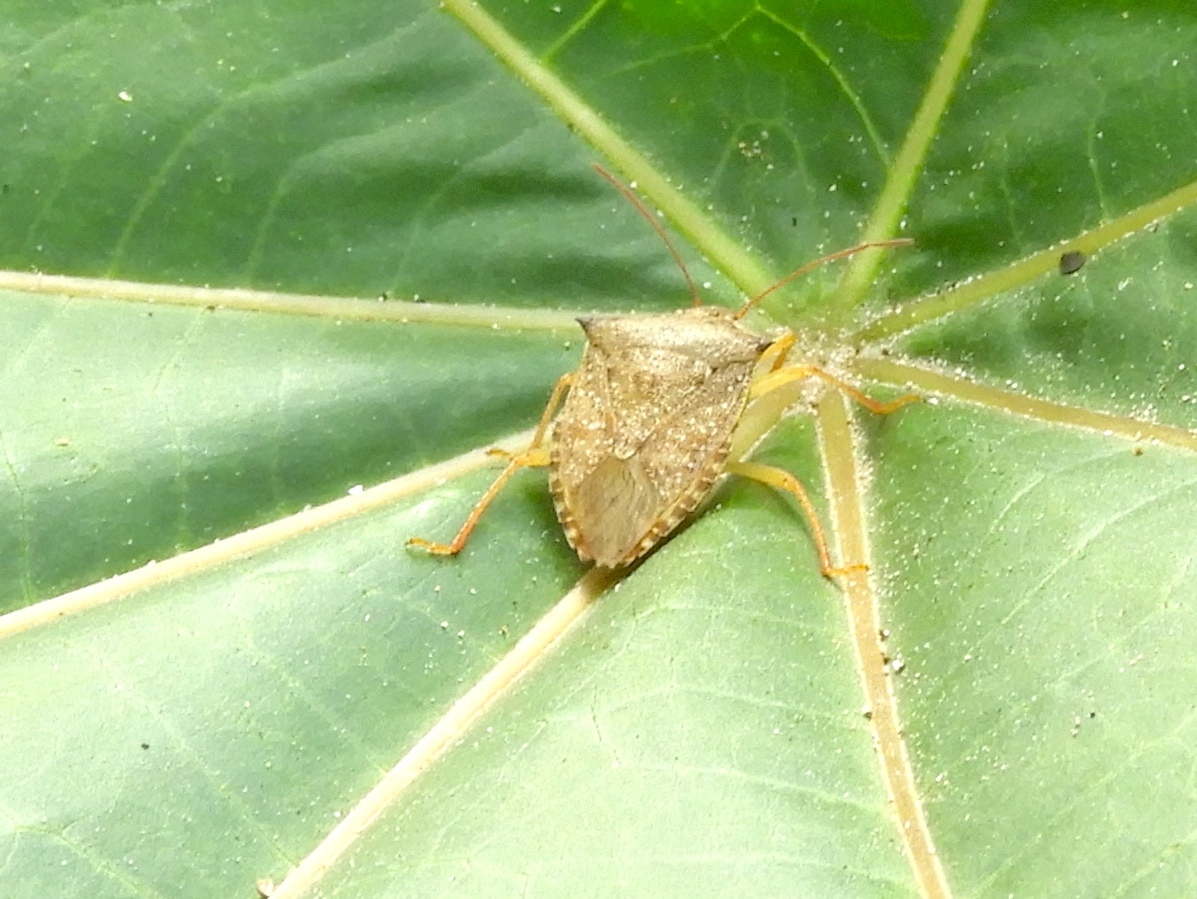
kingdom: Animalia
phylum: Arthropoda
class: Insecta
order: Hemiptera
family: Pentatomidae
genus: Euschistus
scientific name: Euschistus
